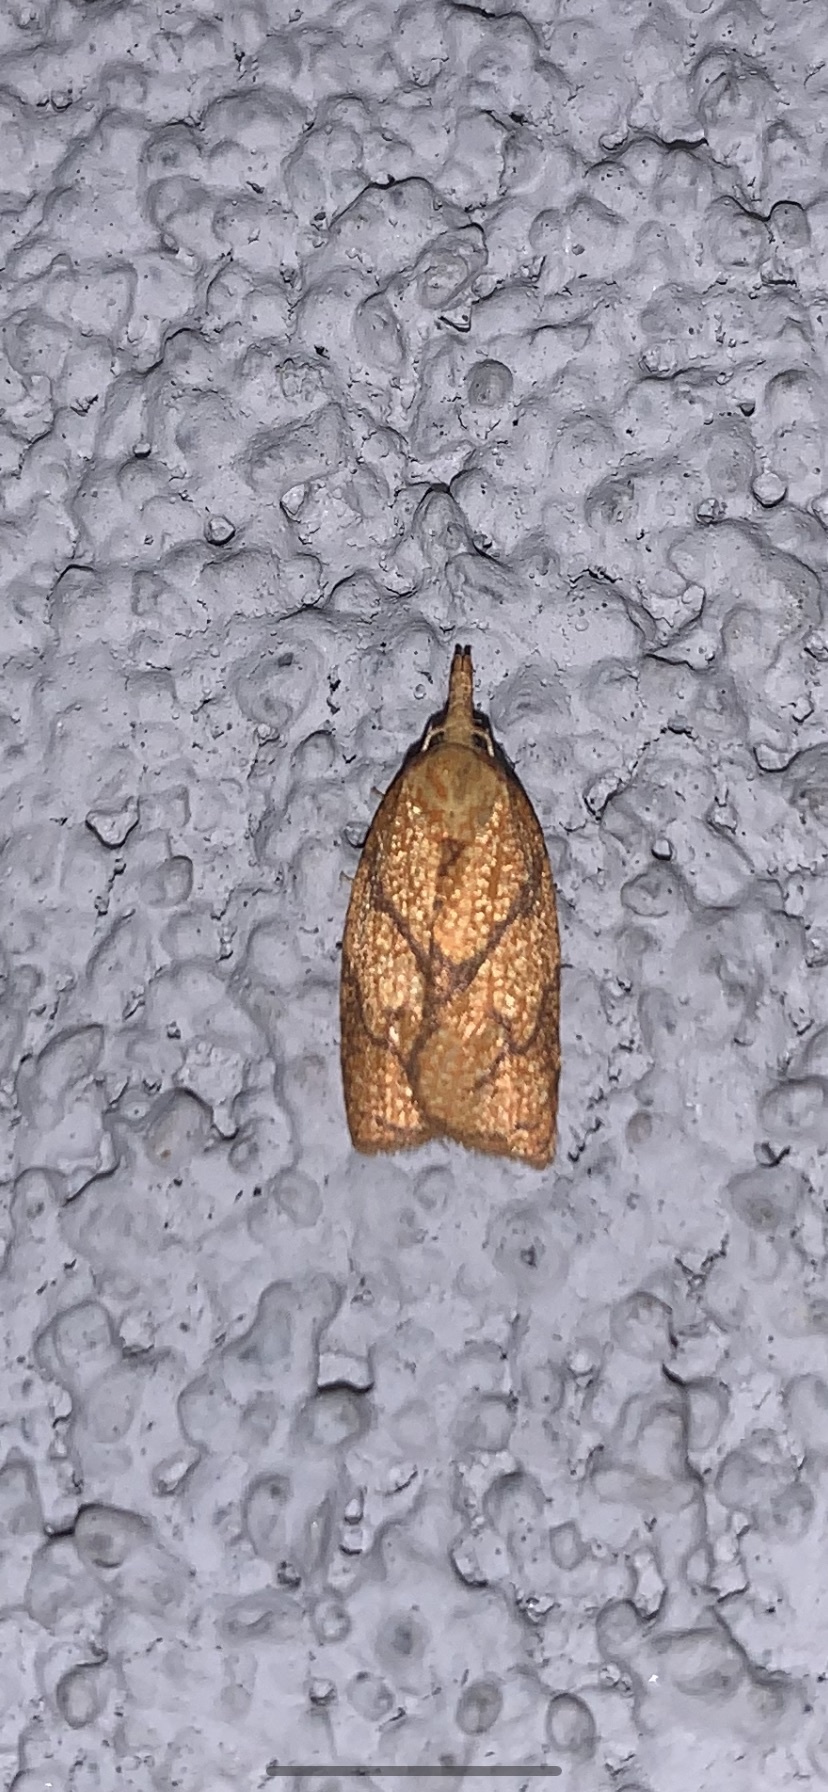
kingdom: Animalia
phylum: Arthropoda
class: Insecta
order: Lepidoptera
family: Tortricidae
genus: Cenopis
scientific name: Cenopis reticulatana
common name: Reticulated fruitworm moth
